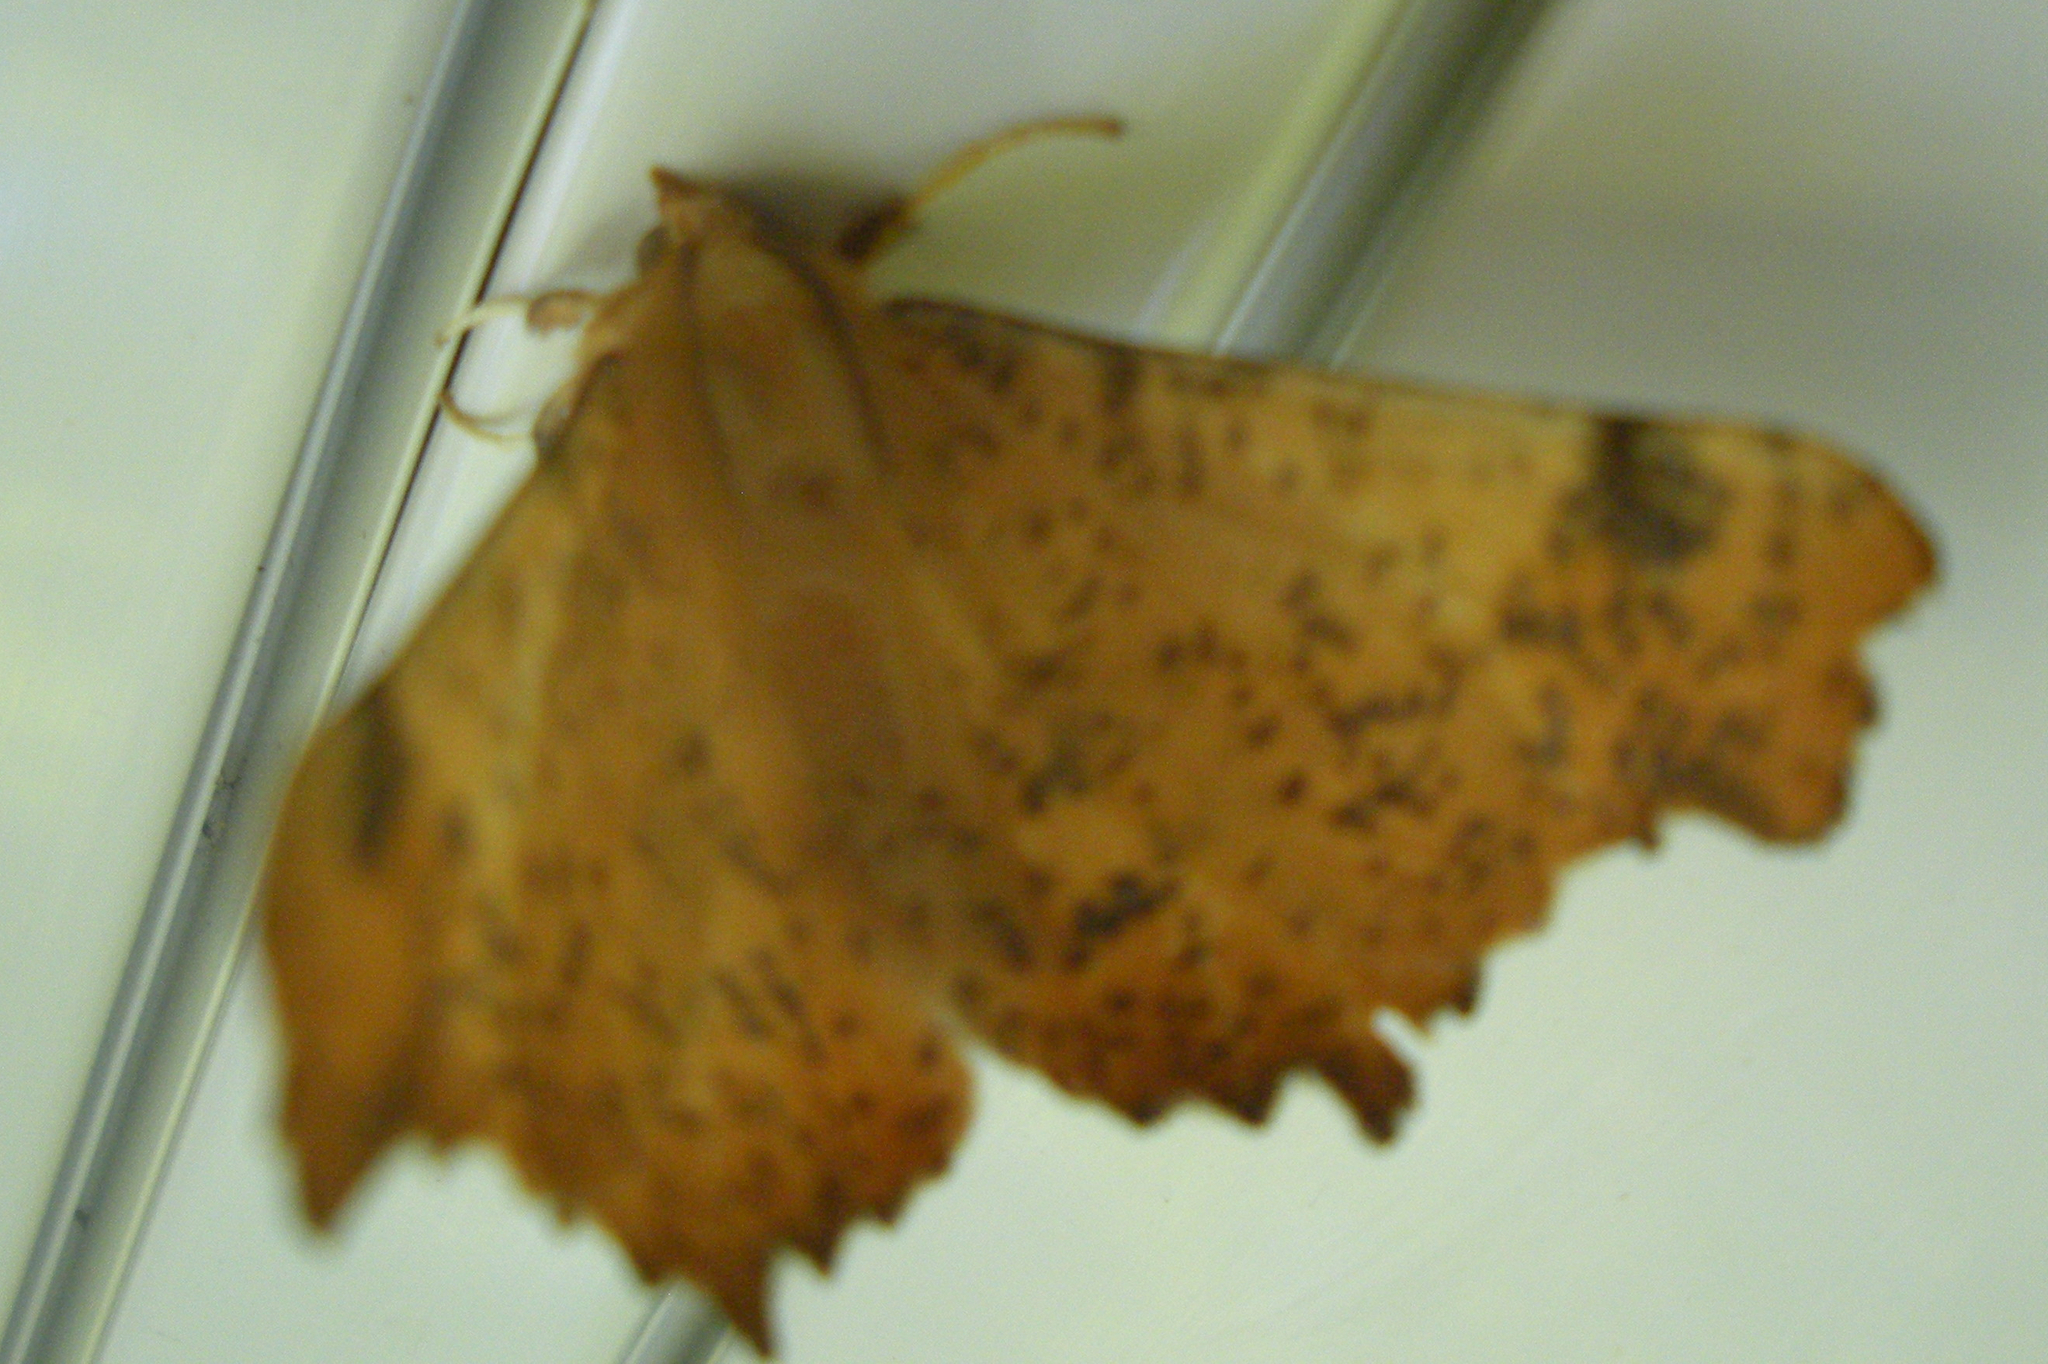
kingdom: Animalia
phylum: Arthropoda
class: Insecta
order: Lepidoptera
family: Geometridae
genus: Ennomos
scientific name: Ennomos magnaria
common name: Maple spanworm
